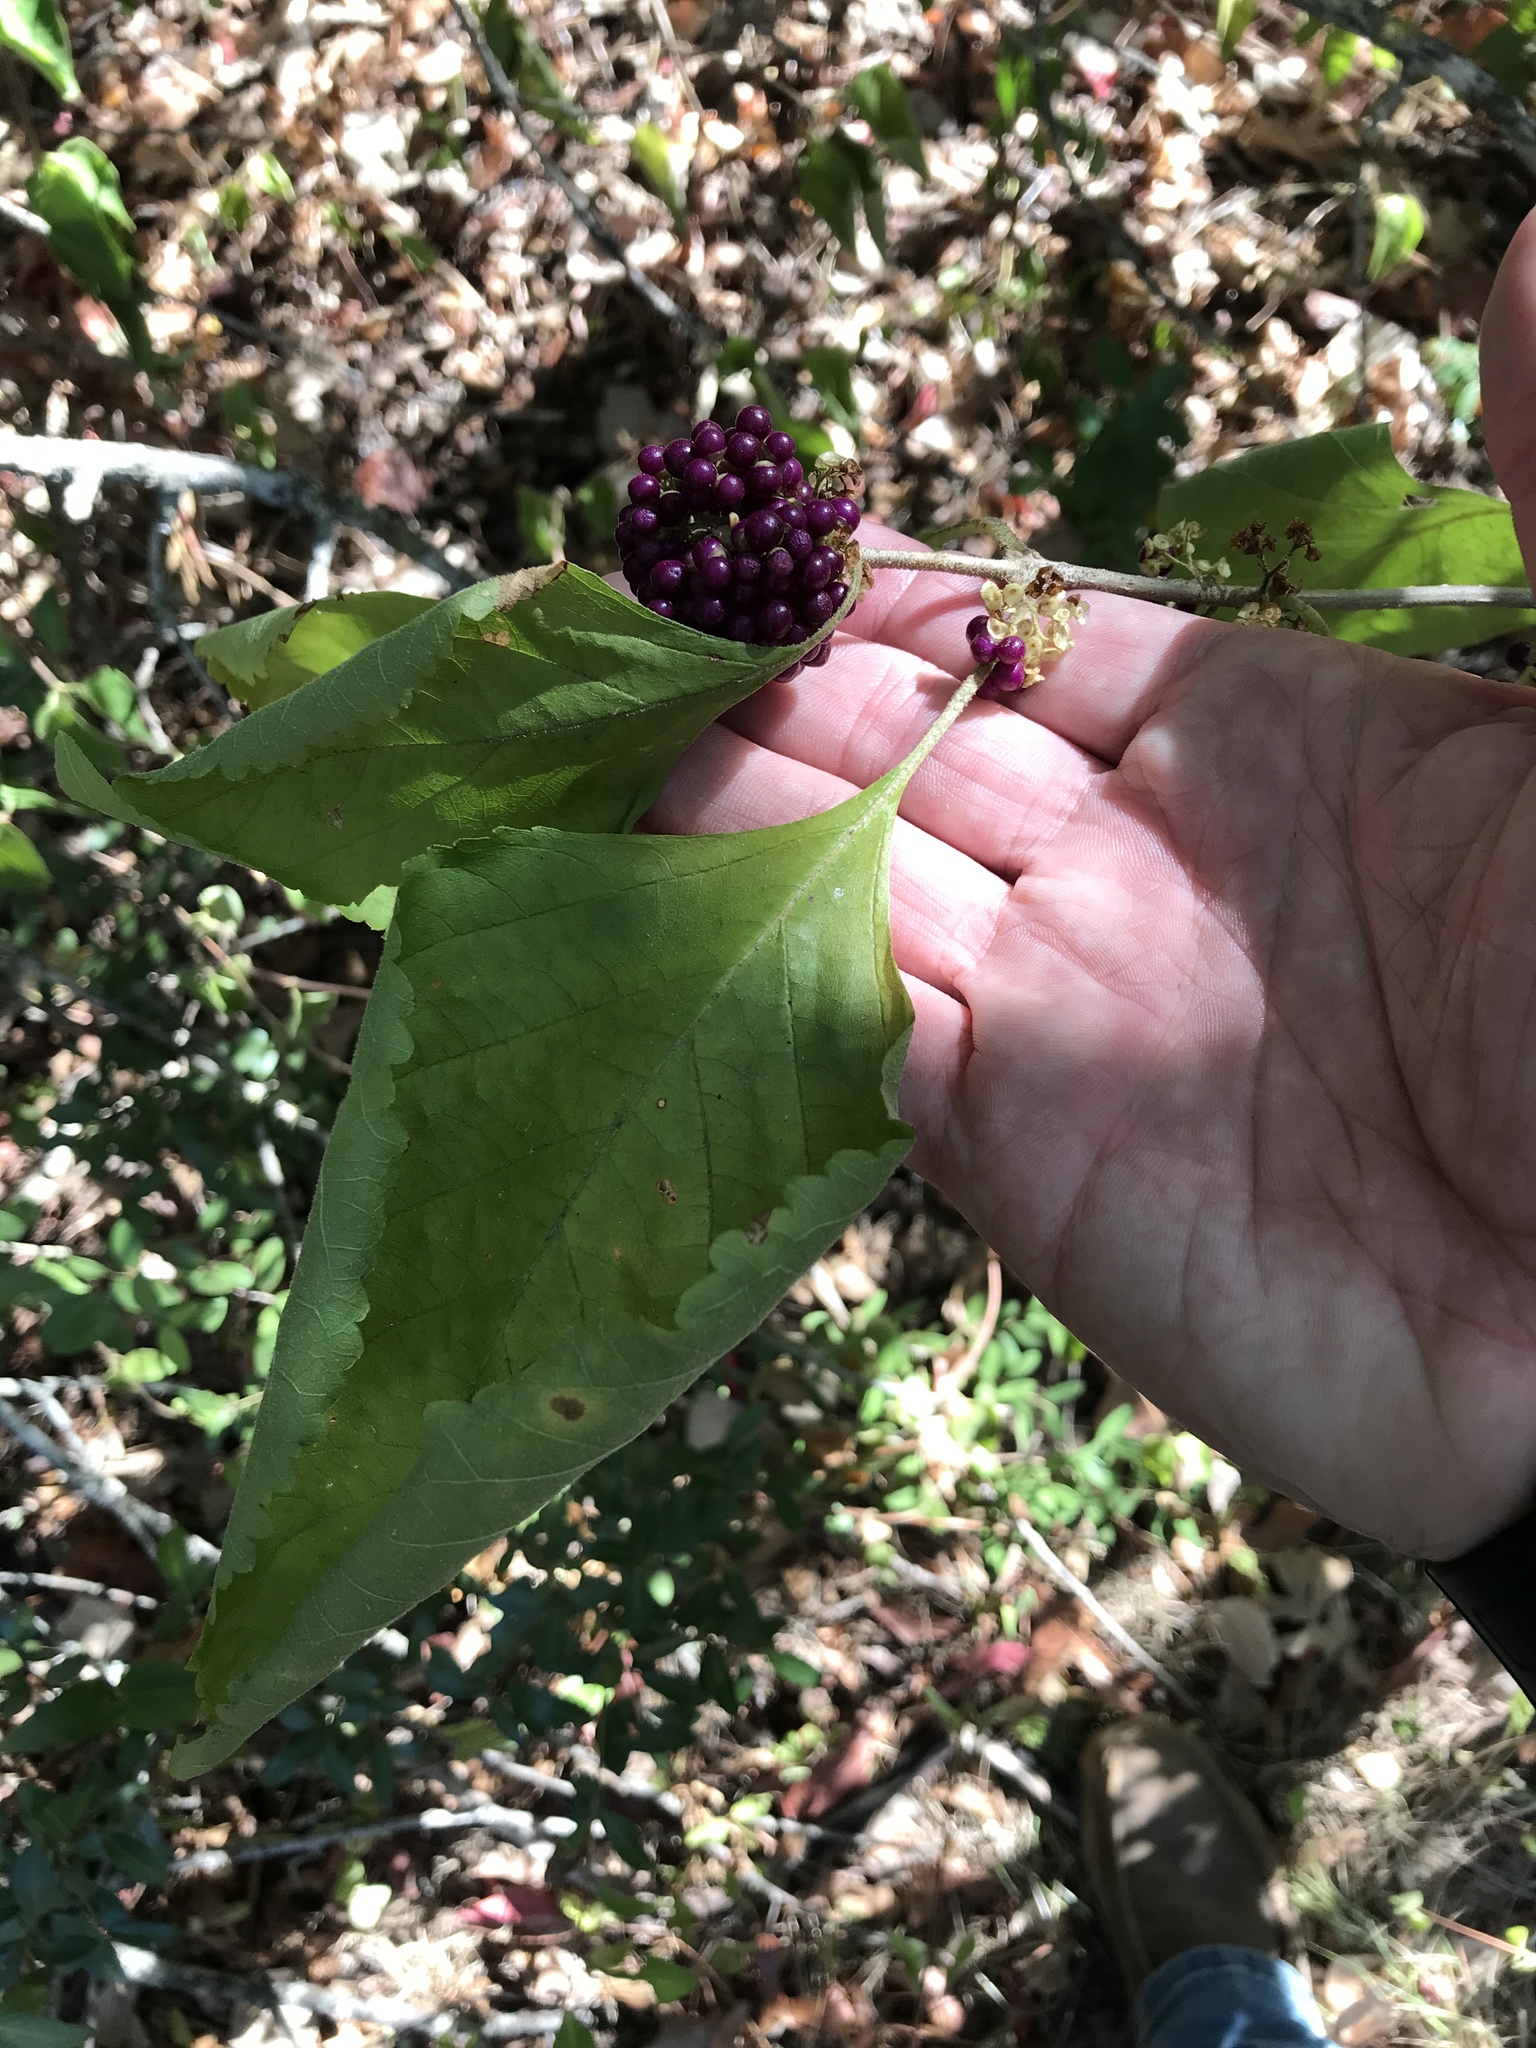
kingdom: Plantae
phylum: Tracheophyta
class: Magnoliopsida
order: Lamiales
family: Lamiaceae
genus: Callicarpa
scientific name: Callicarpa americana
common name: American beautyberry
